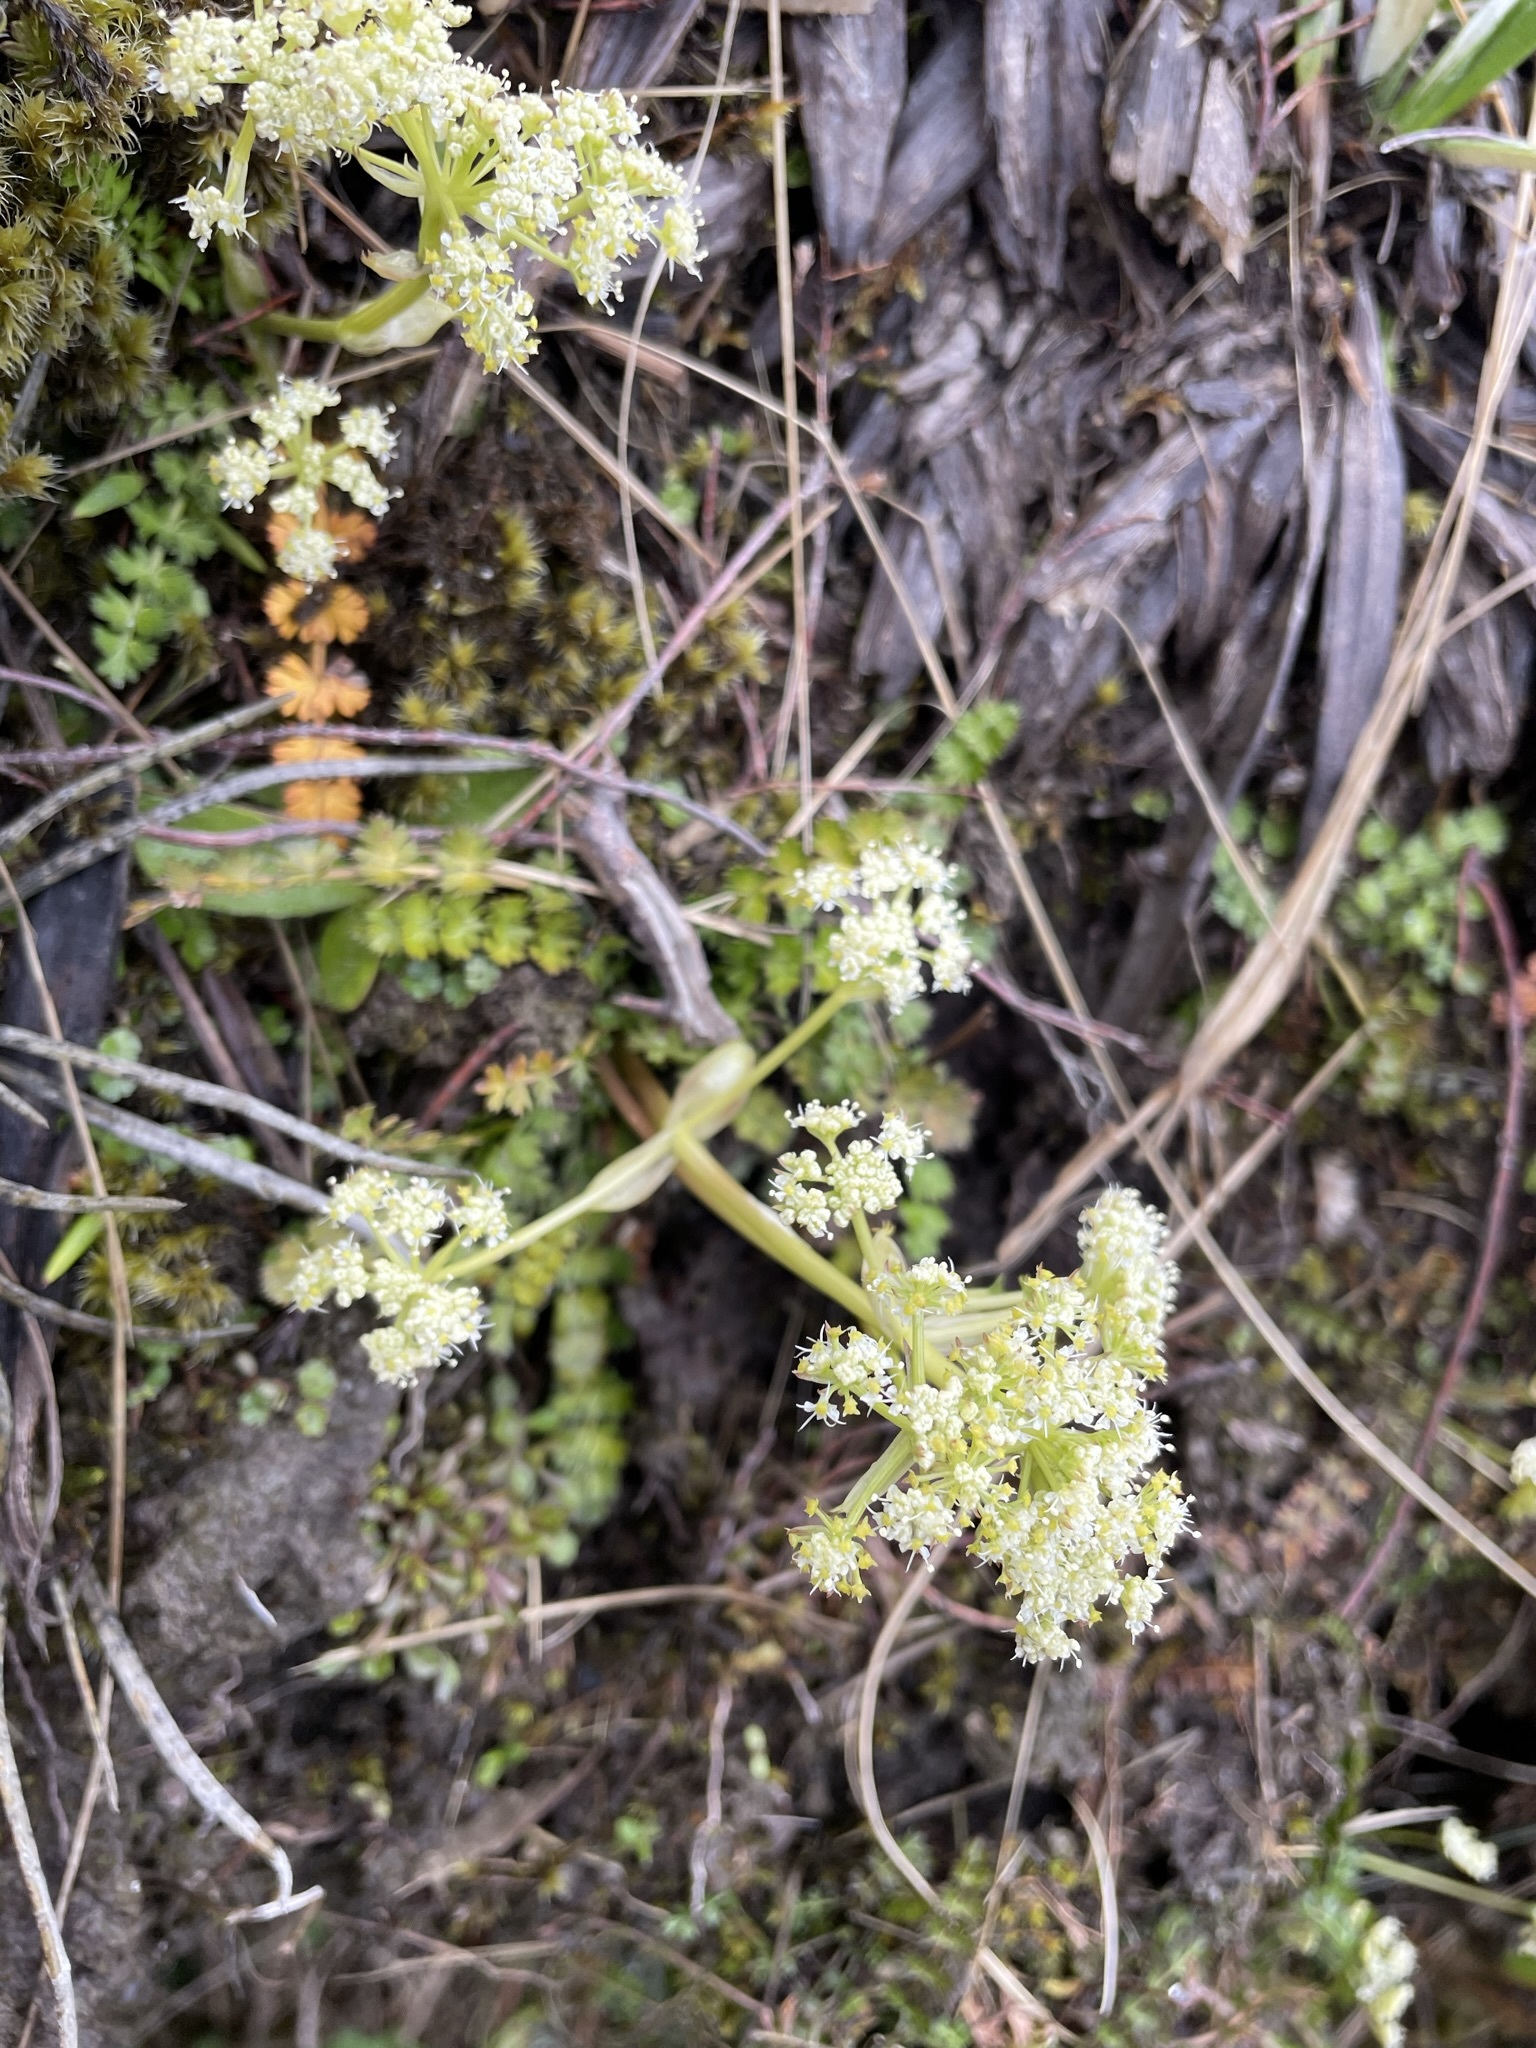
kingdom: Plantae
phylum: Tracheophyta
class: Magnoliopsida
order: Apiales
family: Apiaceae
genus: Anisotome
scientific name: Anisotome aromatica
